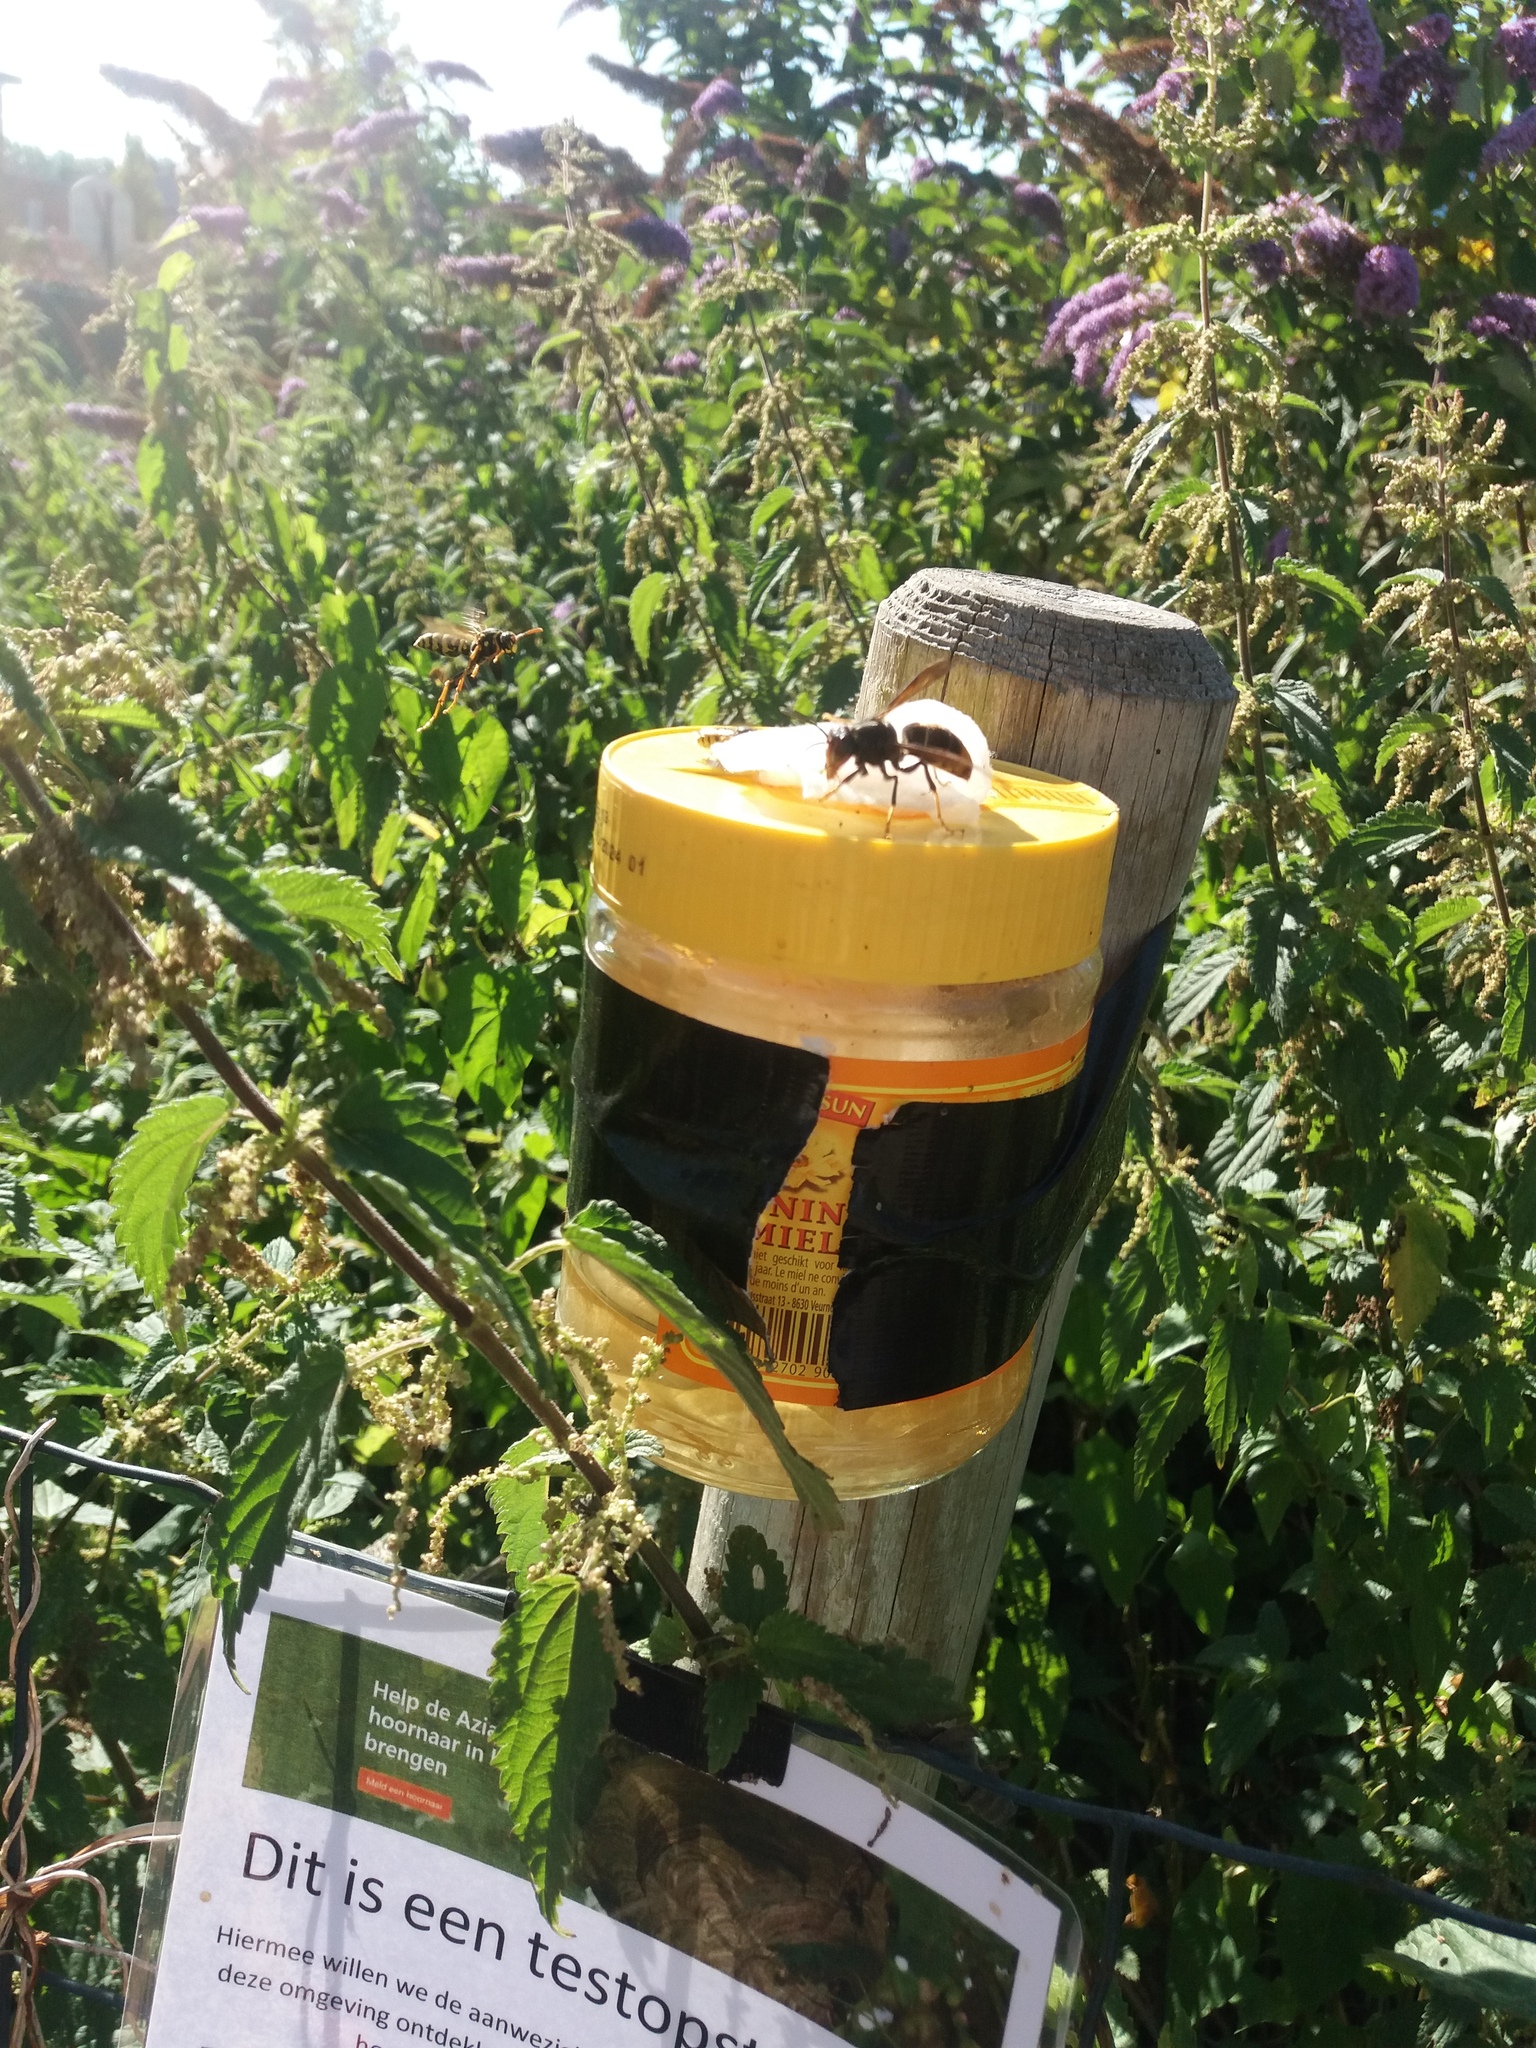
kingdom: Animalia
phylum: Arthropoda
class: Insecta
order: Hymenoptera
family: Vespidae
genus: Vespa
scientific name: Vespa velutina
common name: Asian hornet
